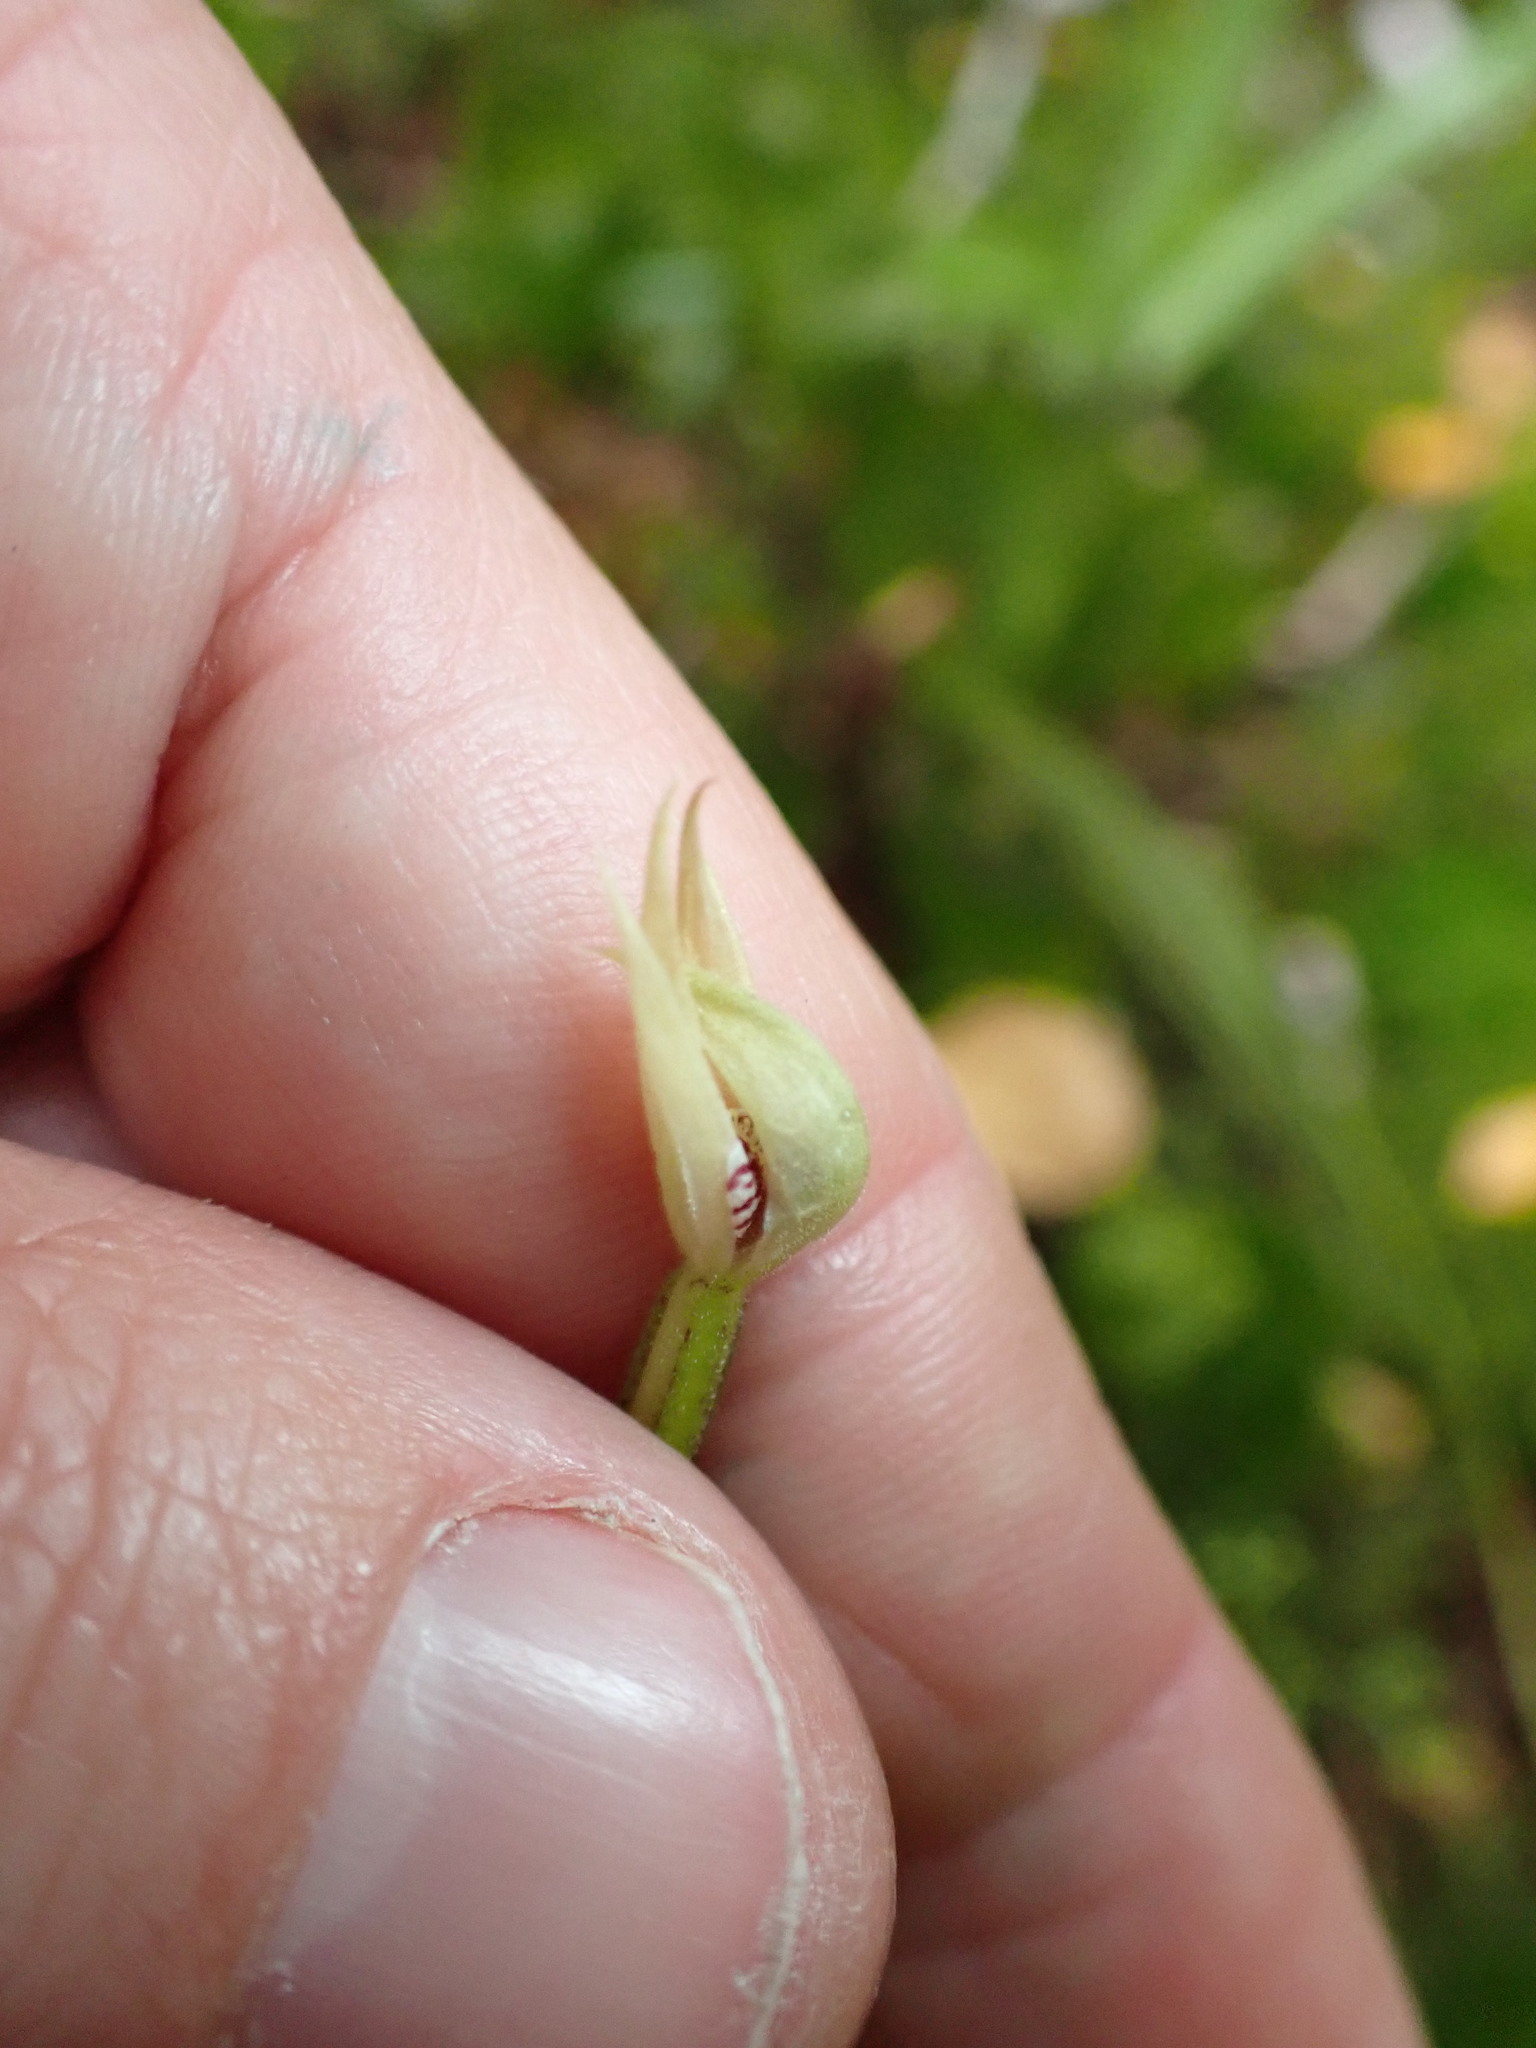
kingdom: Plantae
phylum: Tracheophyta
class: Liliopsida
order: Asparagales
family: Orchidaceae
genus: Adenochilus
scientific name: Adenochilus gracilis
